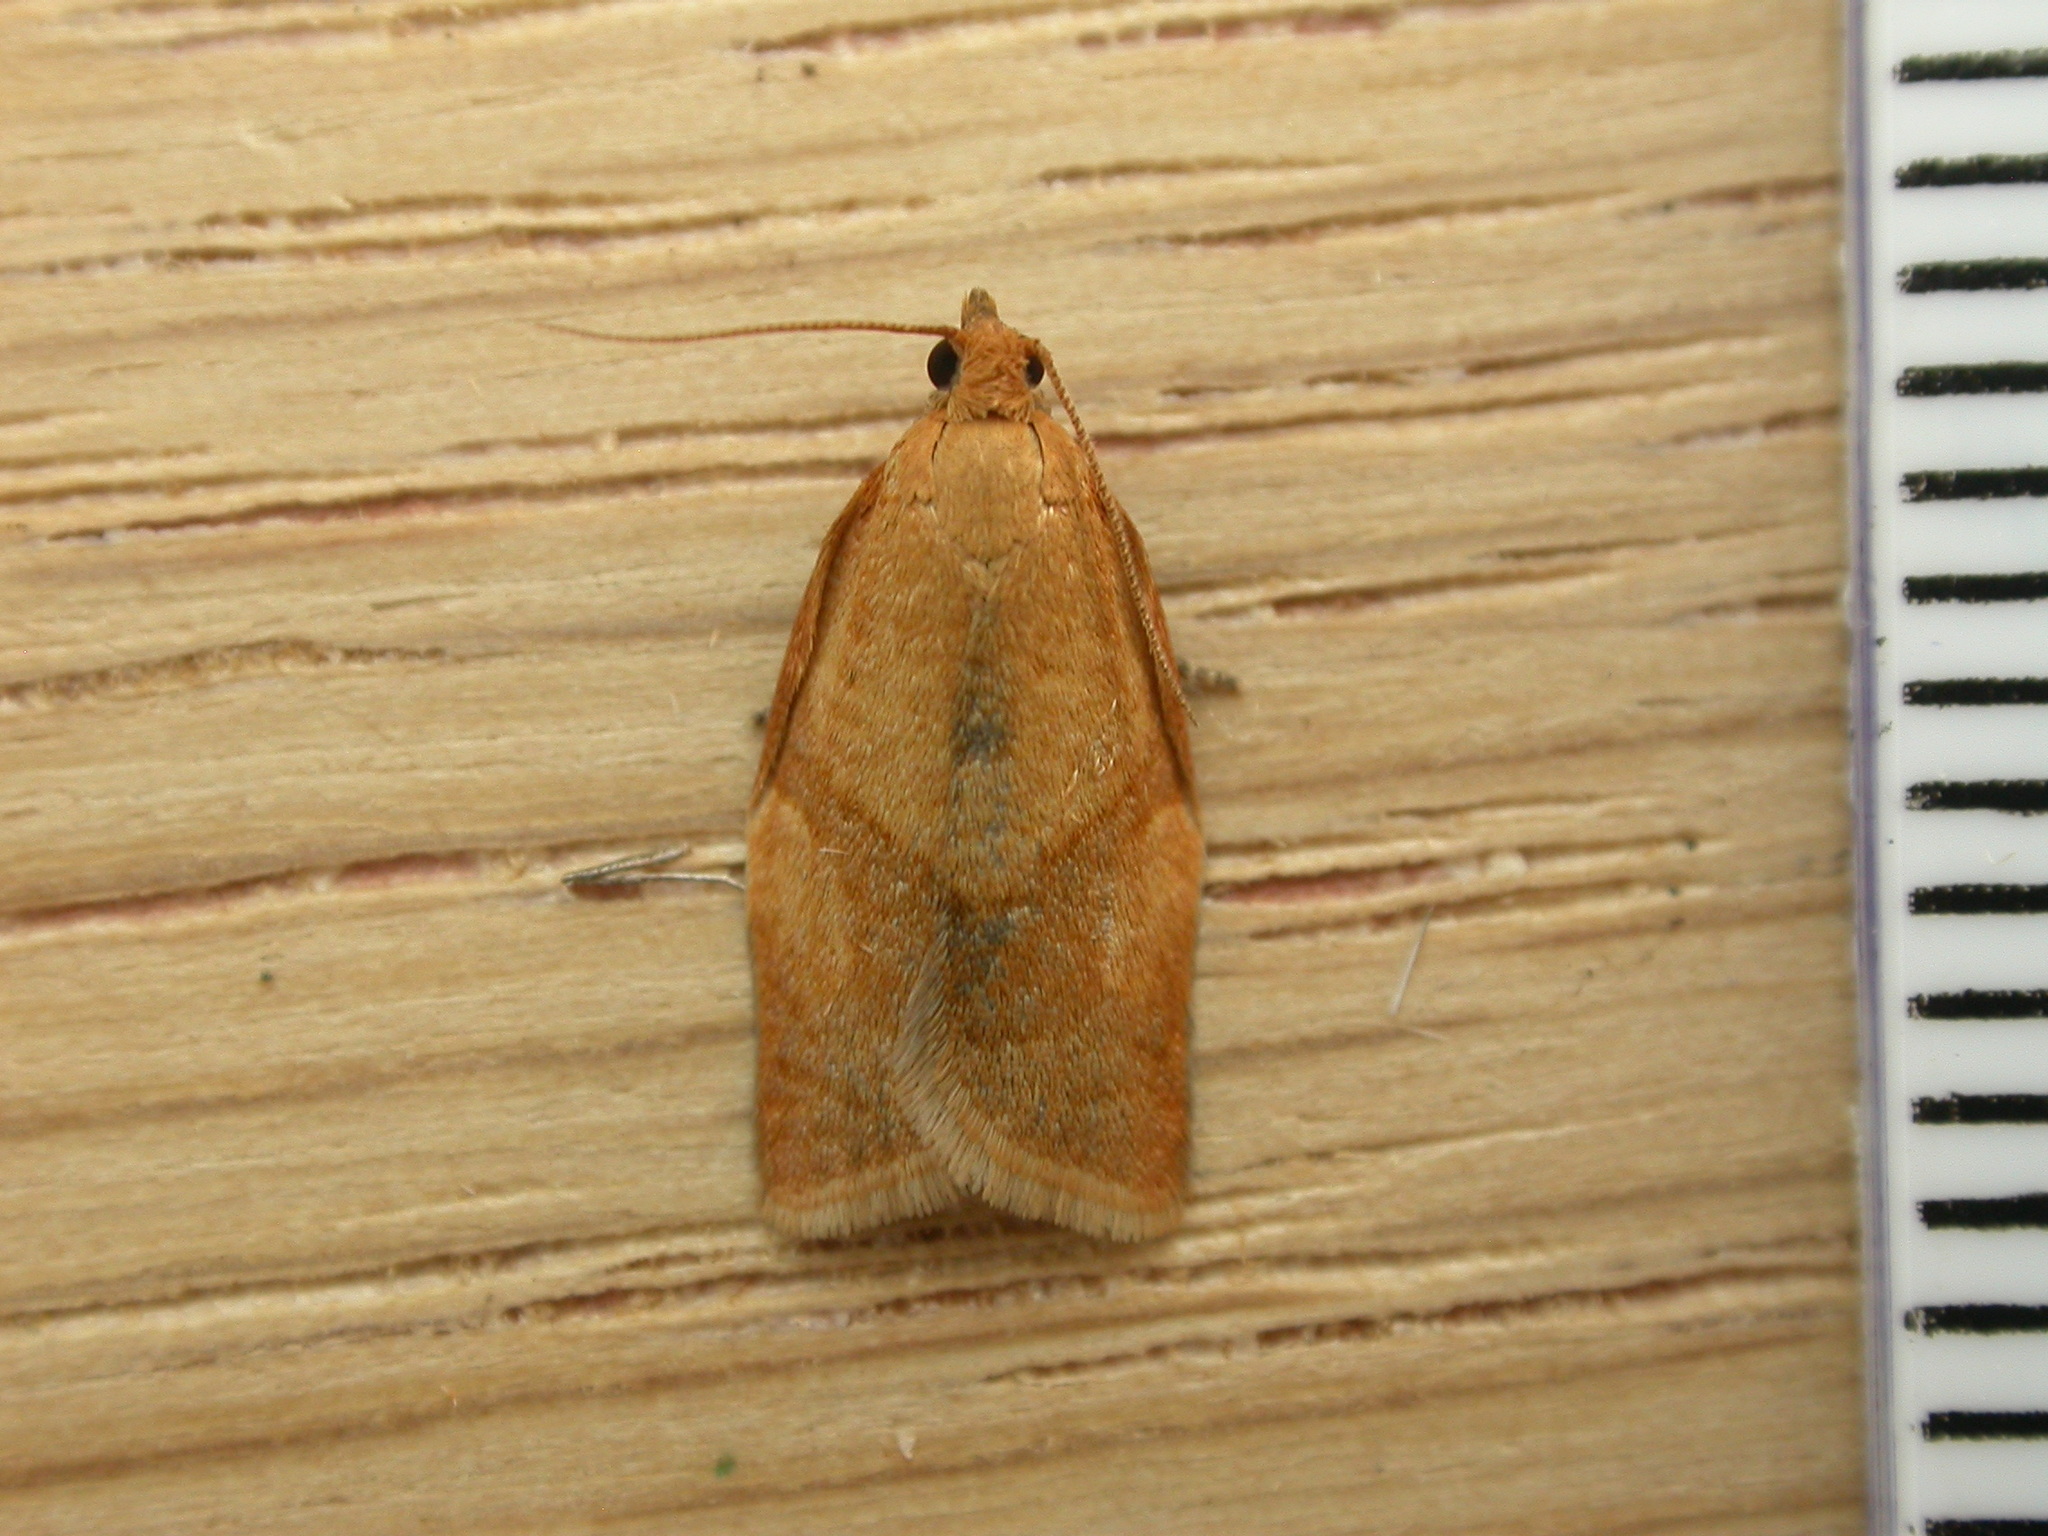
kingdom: Animalia
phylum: Arthropoda
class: Insecta
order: Lepidoptera
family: Tortricidae
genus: Clepsis
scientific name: Clepsis consimilana
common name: Privet tortrix
